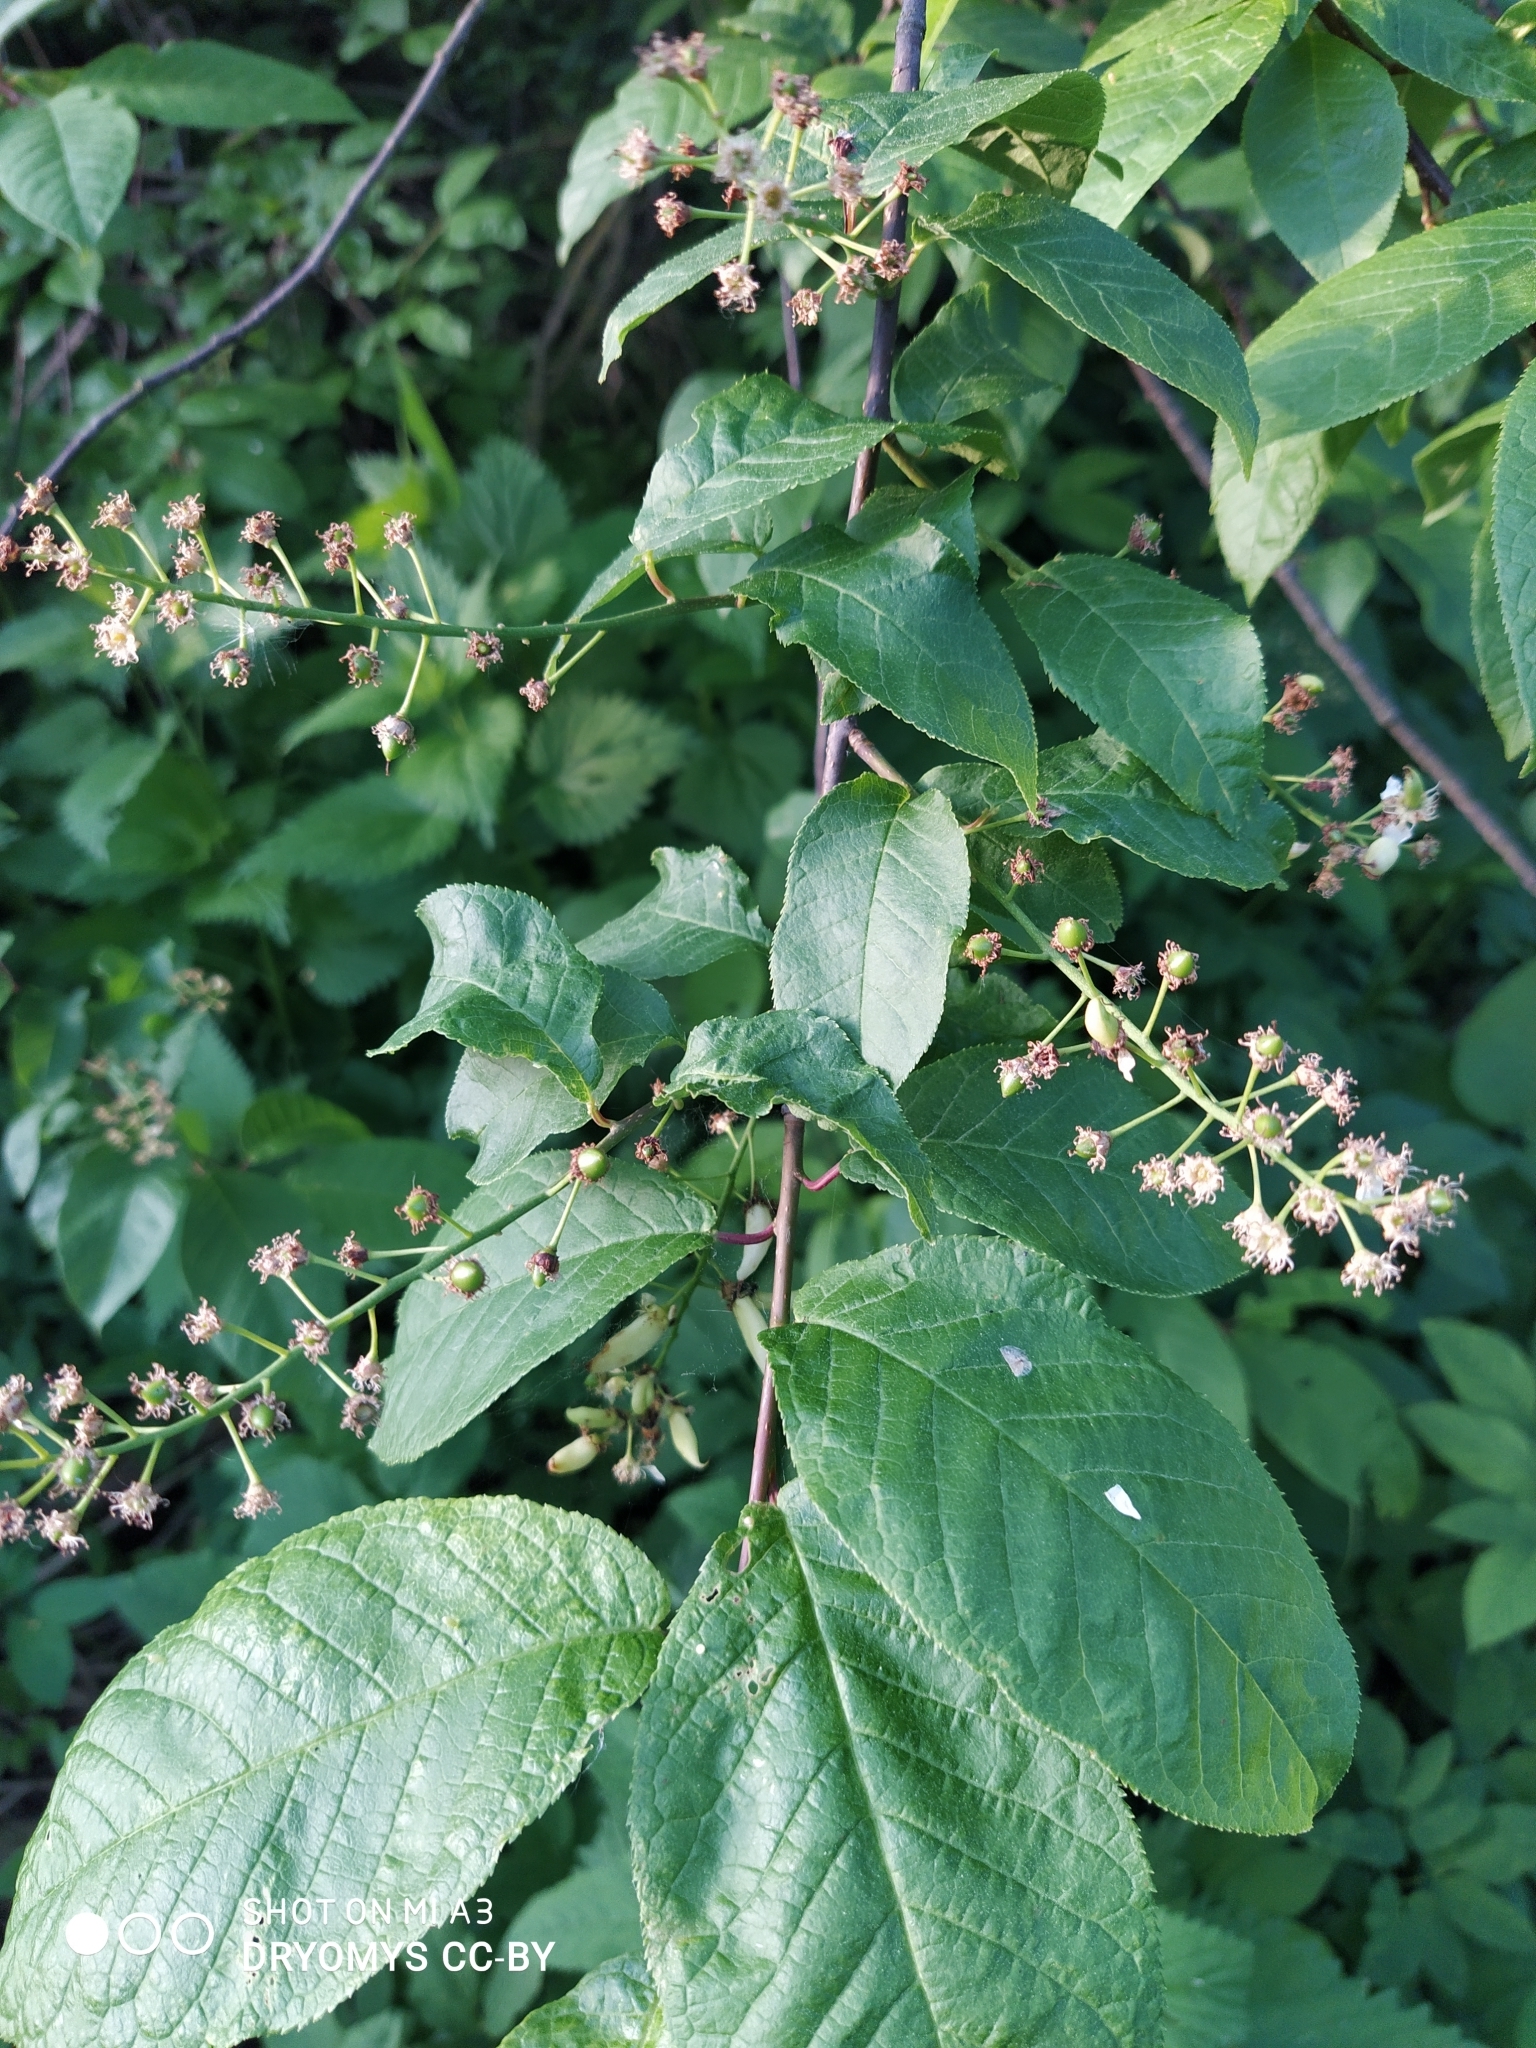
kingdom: Plantae
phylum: Tracheophyta
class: Magnoliopsida
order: Rosales
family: Rosaceae
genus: Prunus
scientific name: Prunus padus
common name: Bird cherry
